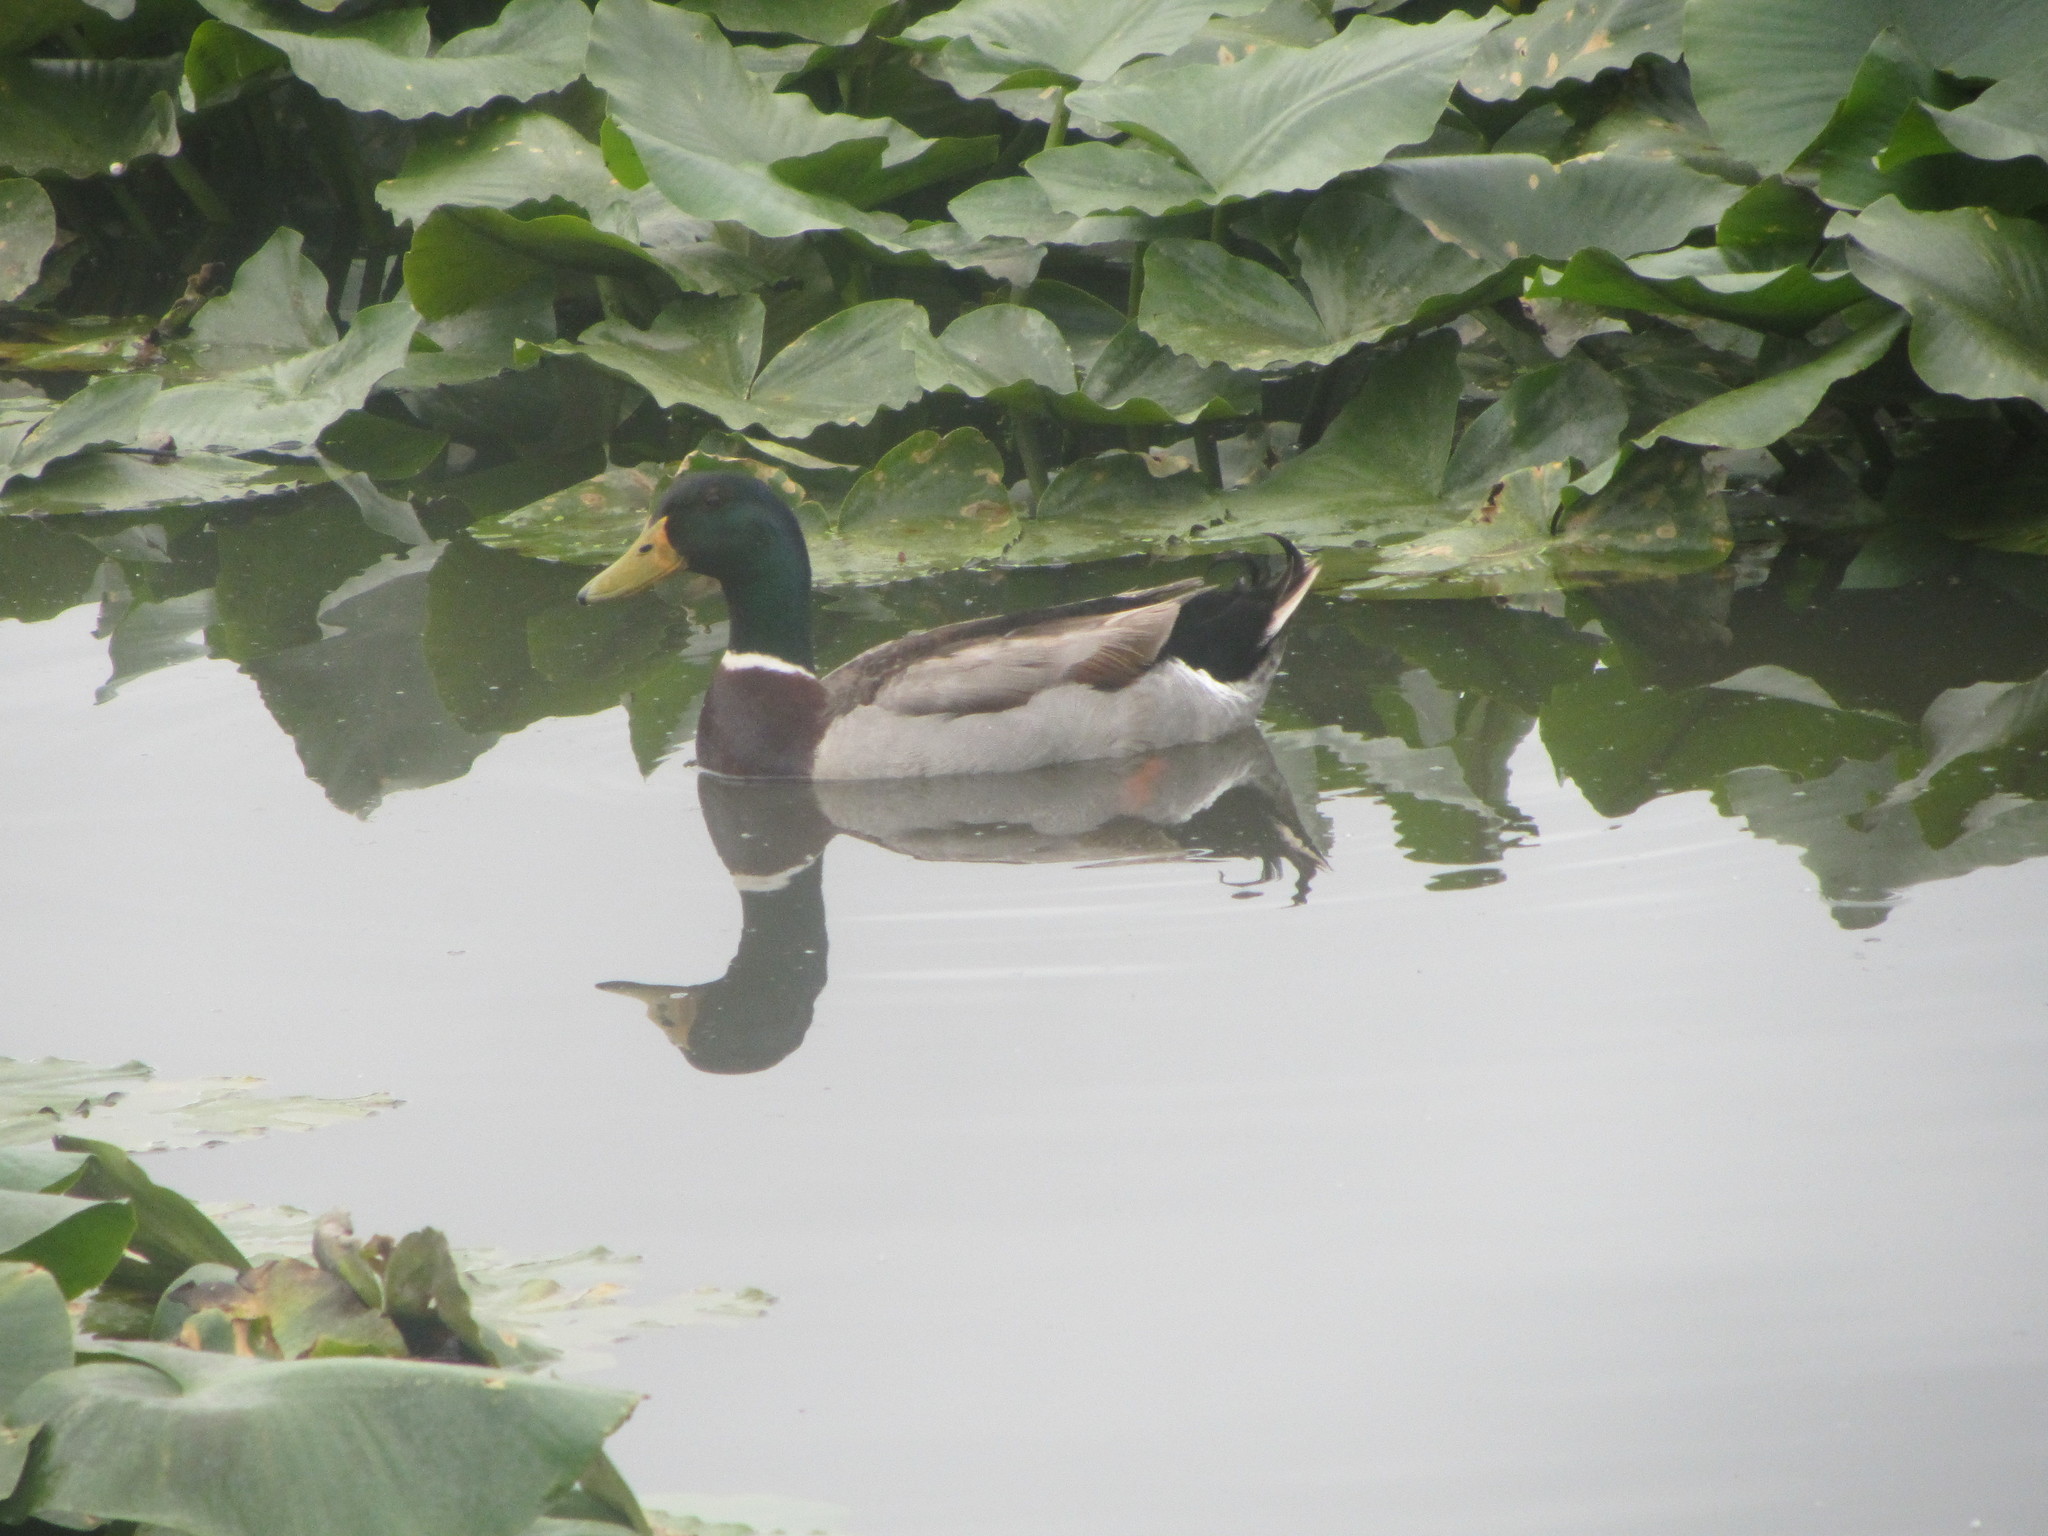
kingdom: Animalia
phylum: Chordata
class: Aves
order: Anseriformes
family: Anatidae
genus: Anas
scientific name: Anas platyrhynchos
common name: Mallard
